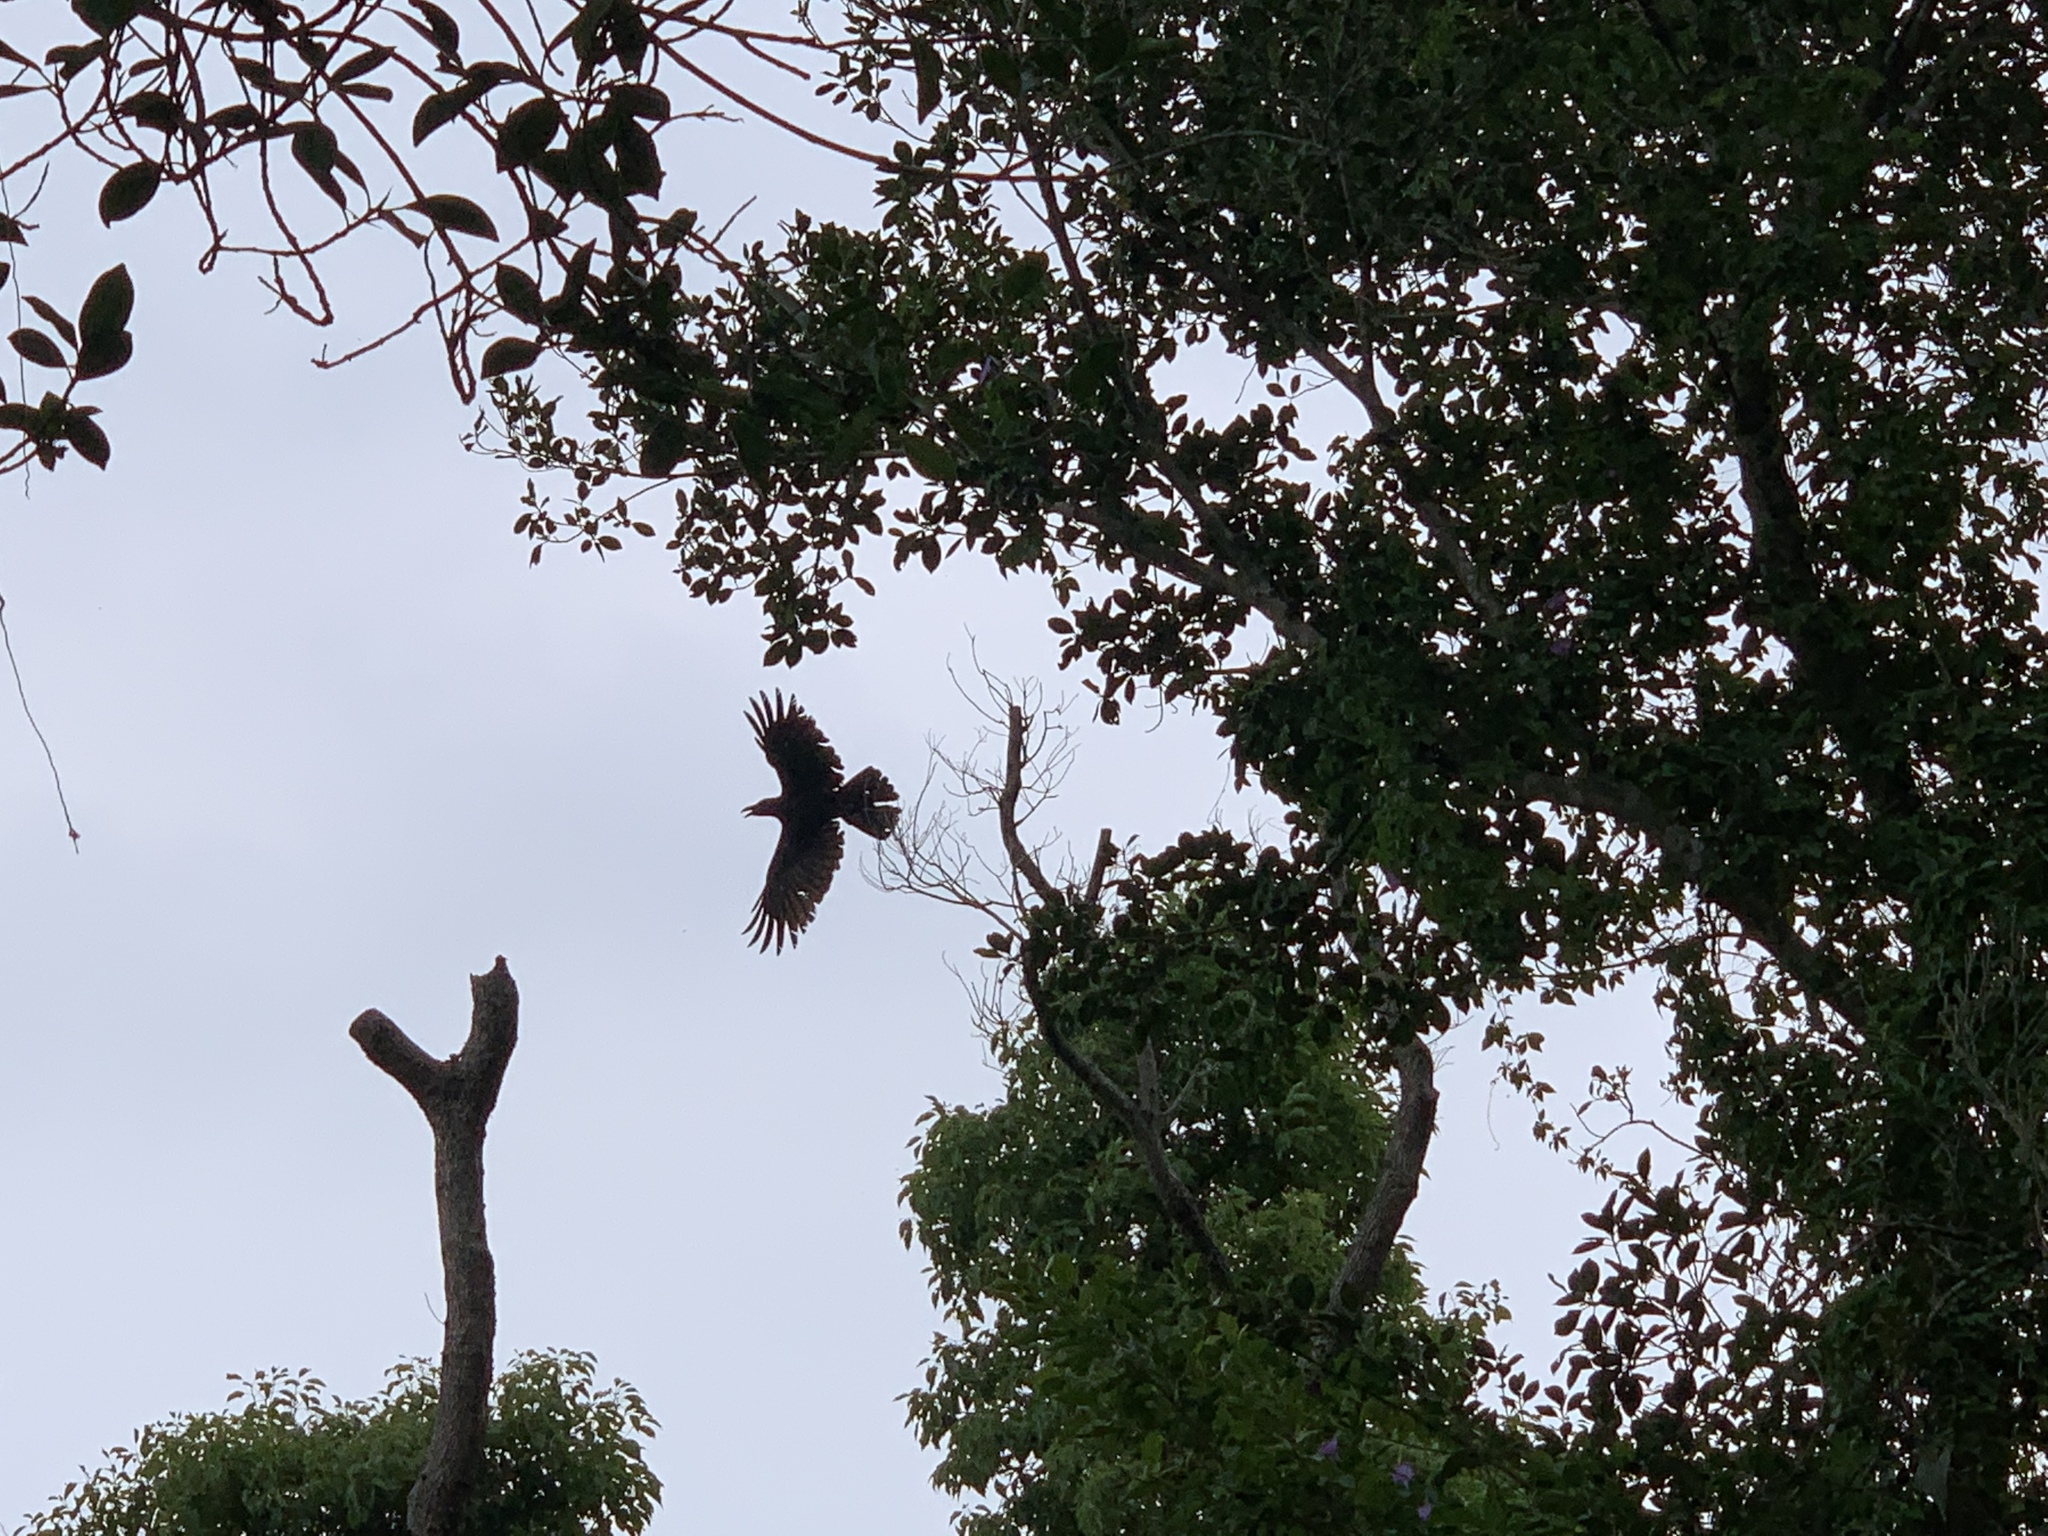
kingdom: Animalia
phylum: Chordata
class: Aves
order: Passeriformes
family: Corvidae
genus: Corvus
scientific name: Corvus macrorhynchos
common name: Large-billed crow
